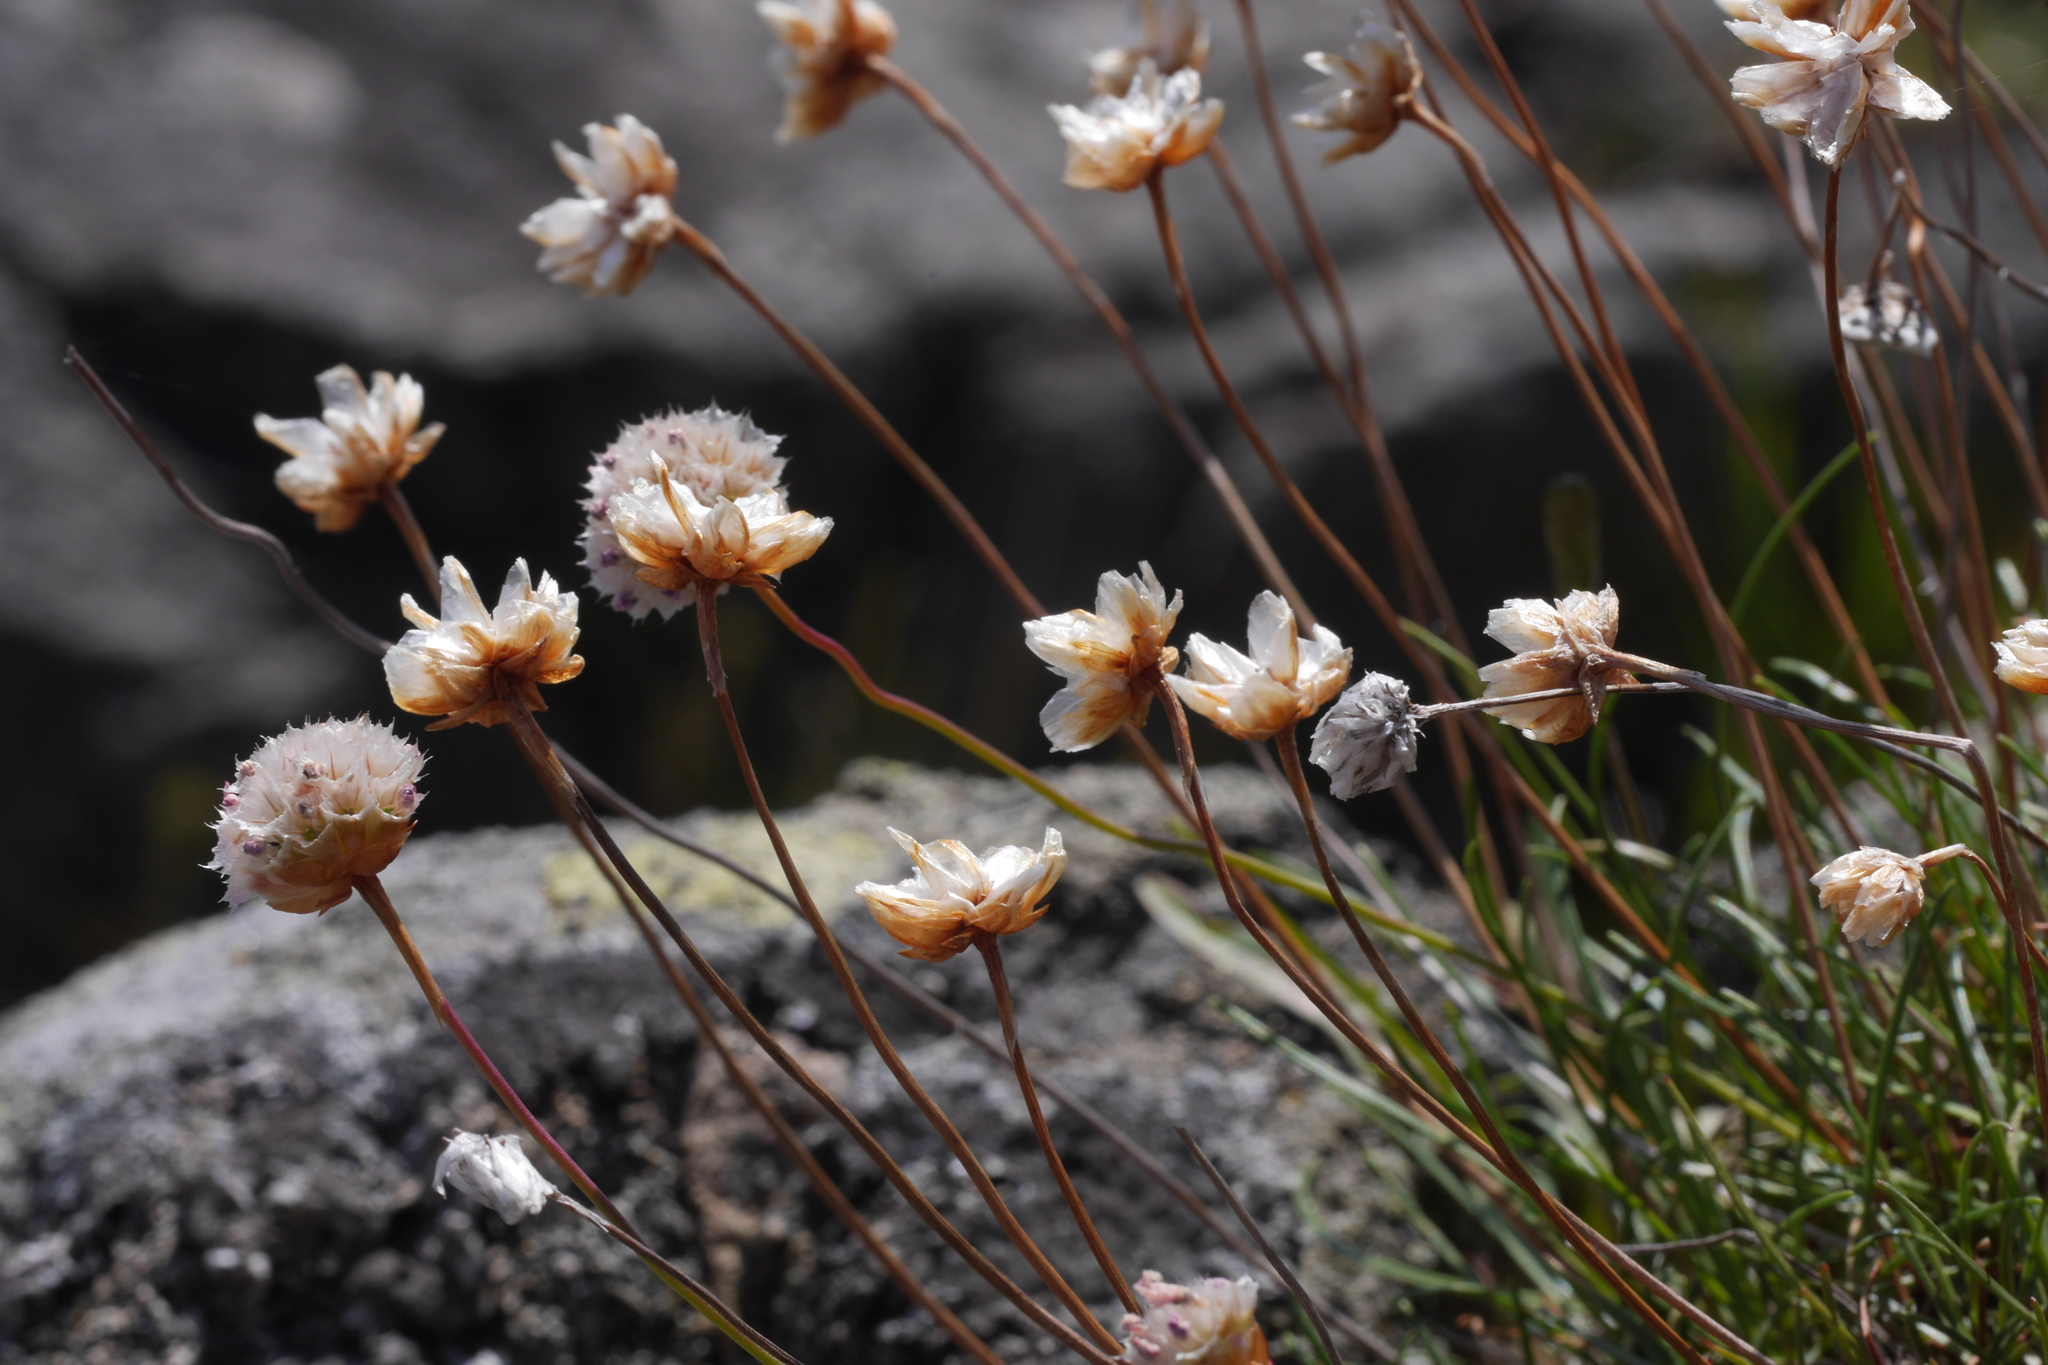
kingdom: Plantae
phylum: Tracheophyta
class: Magnoliopsida
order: Caryophyllales
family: Plumbaginaceae
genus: Armeria
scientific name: Armeria maritima
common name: Thrift
